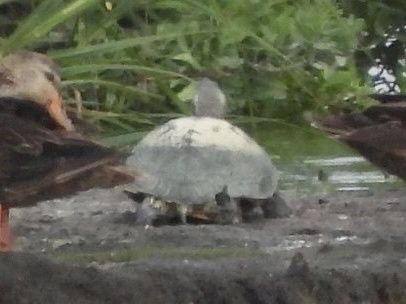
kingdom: Animalia
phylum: Chordata
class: Testudines
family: Emydidae
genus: Trachemys
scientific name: Trachemys scripta
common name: Slider
